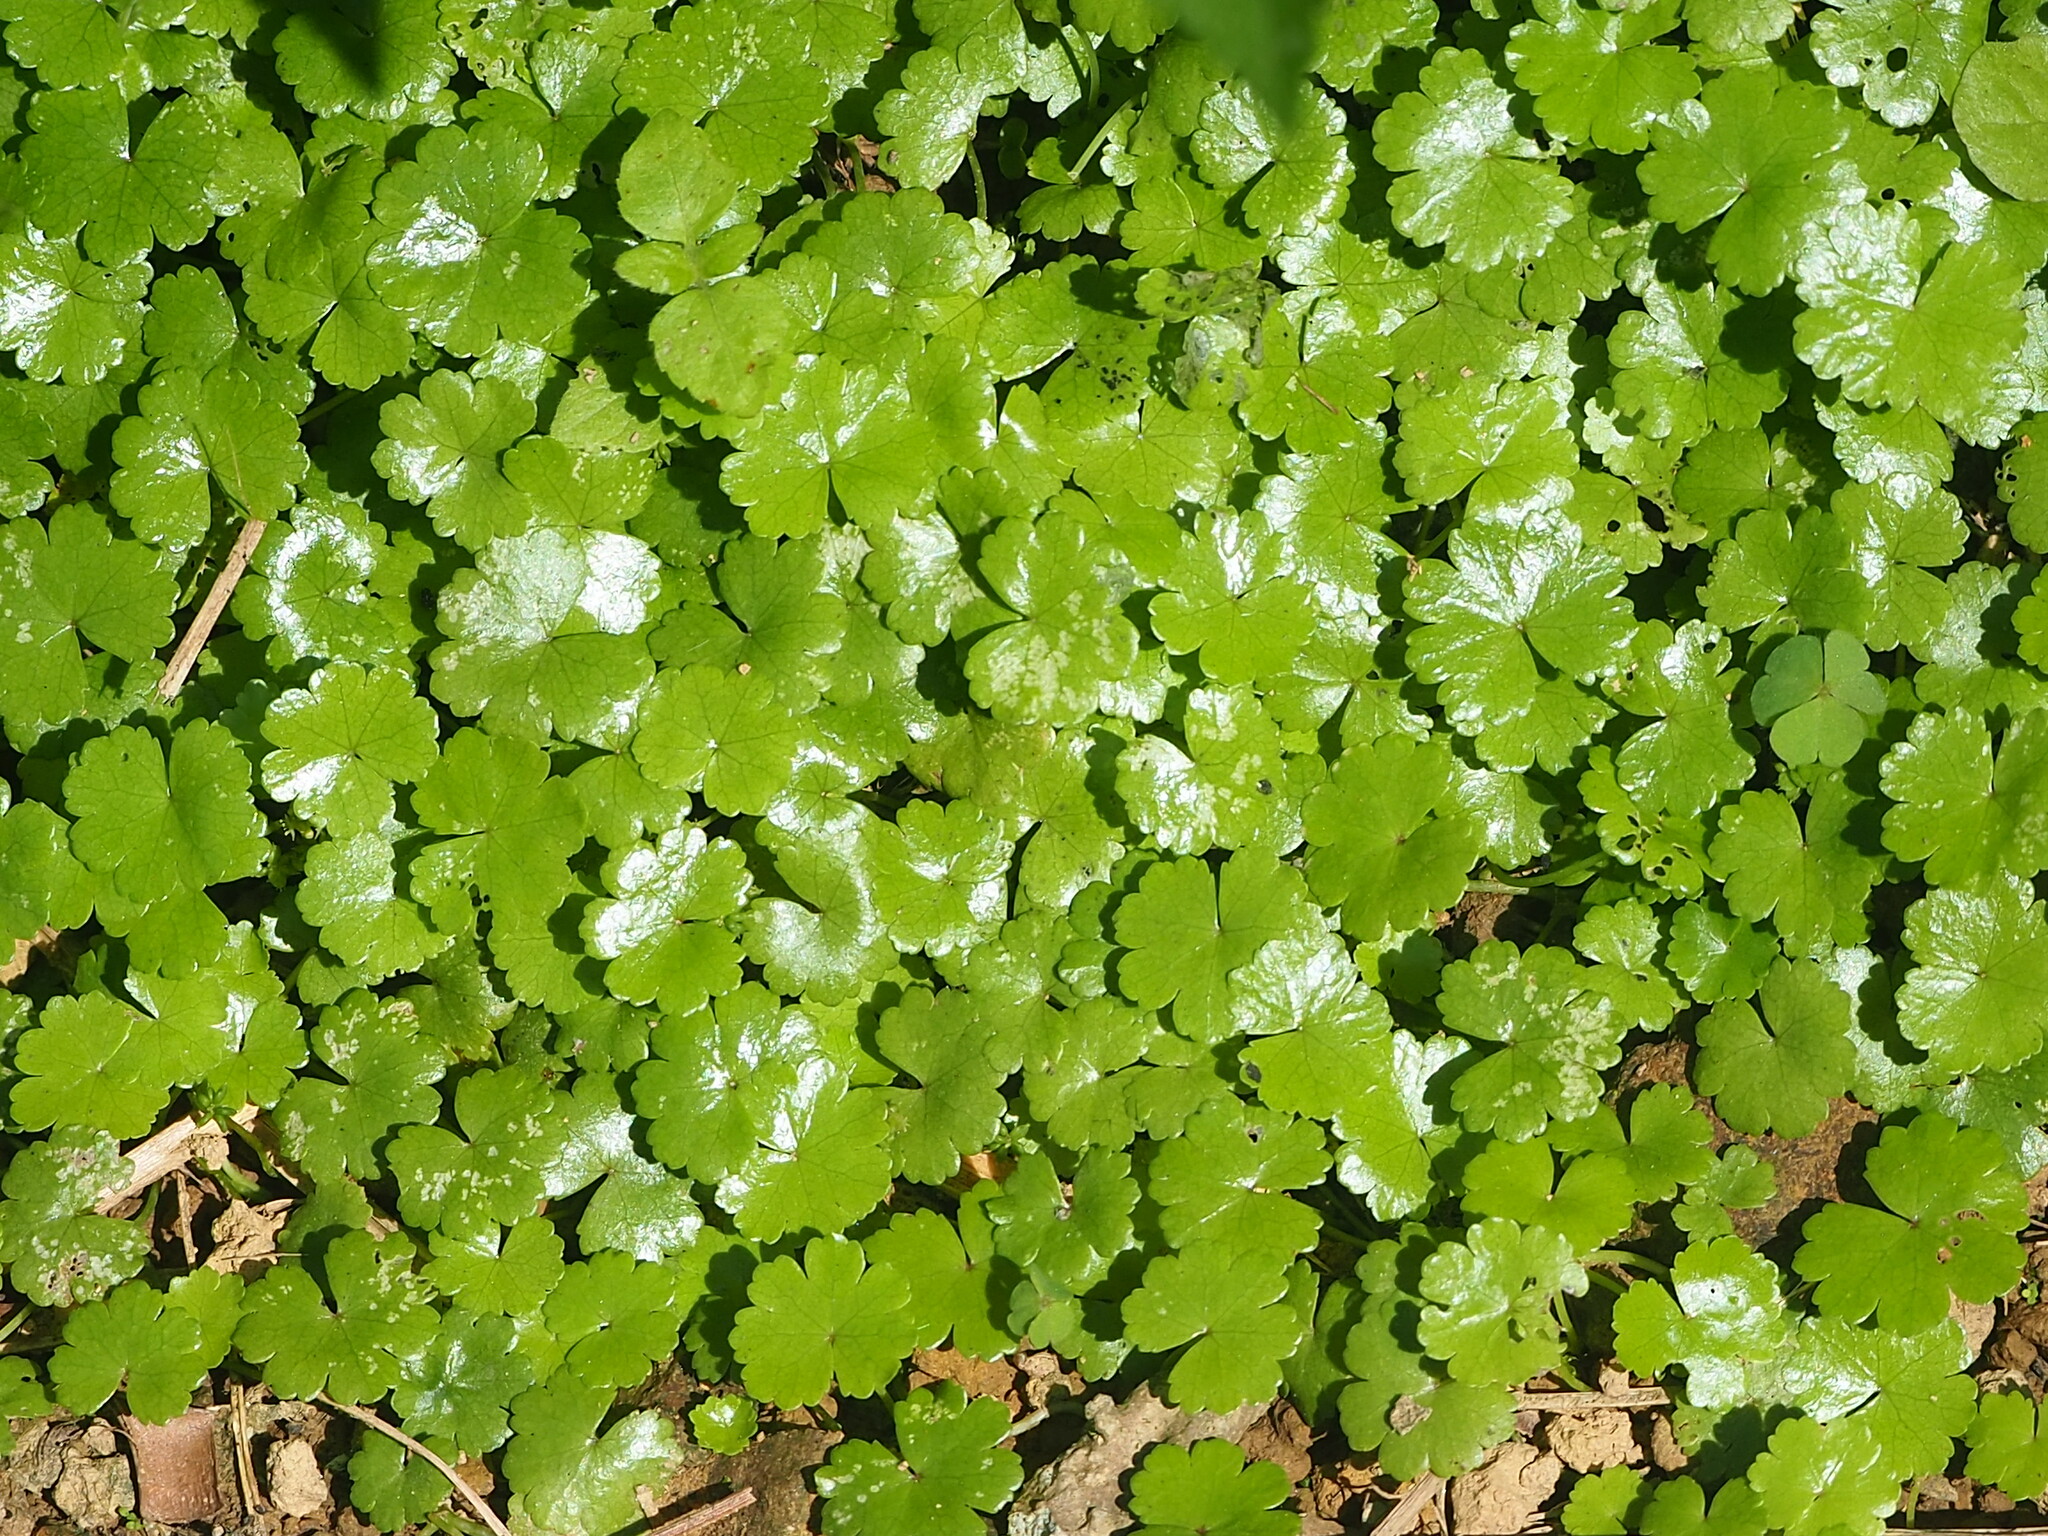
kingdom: Plantae
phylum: Tracheophyta
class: Magnoliopsida
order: Apiales
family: Araliaceae
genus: Hydrocotyle
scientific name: Hydrocotyle sibthorpioides
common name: Lawn marshpennywort
